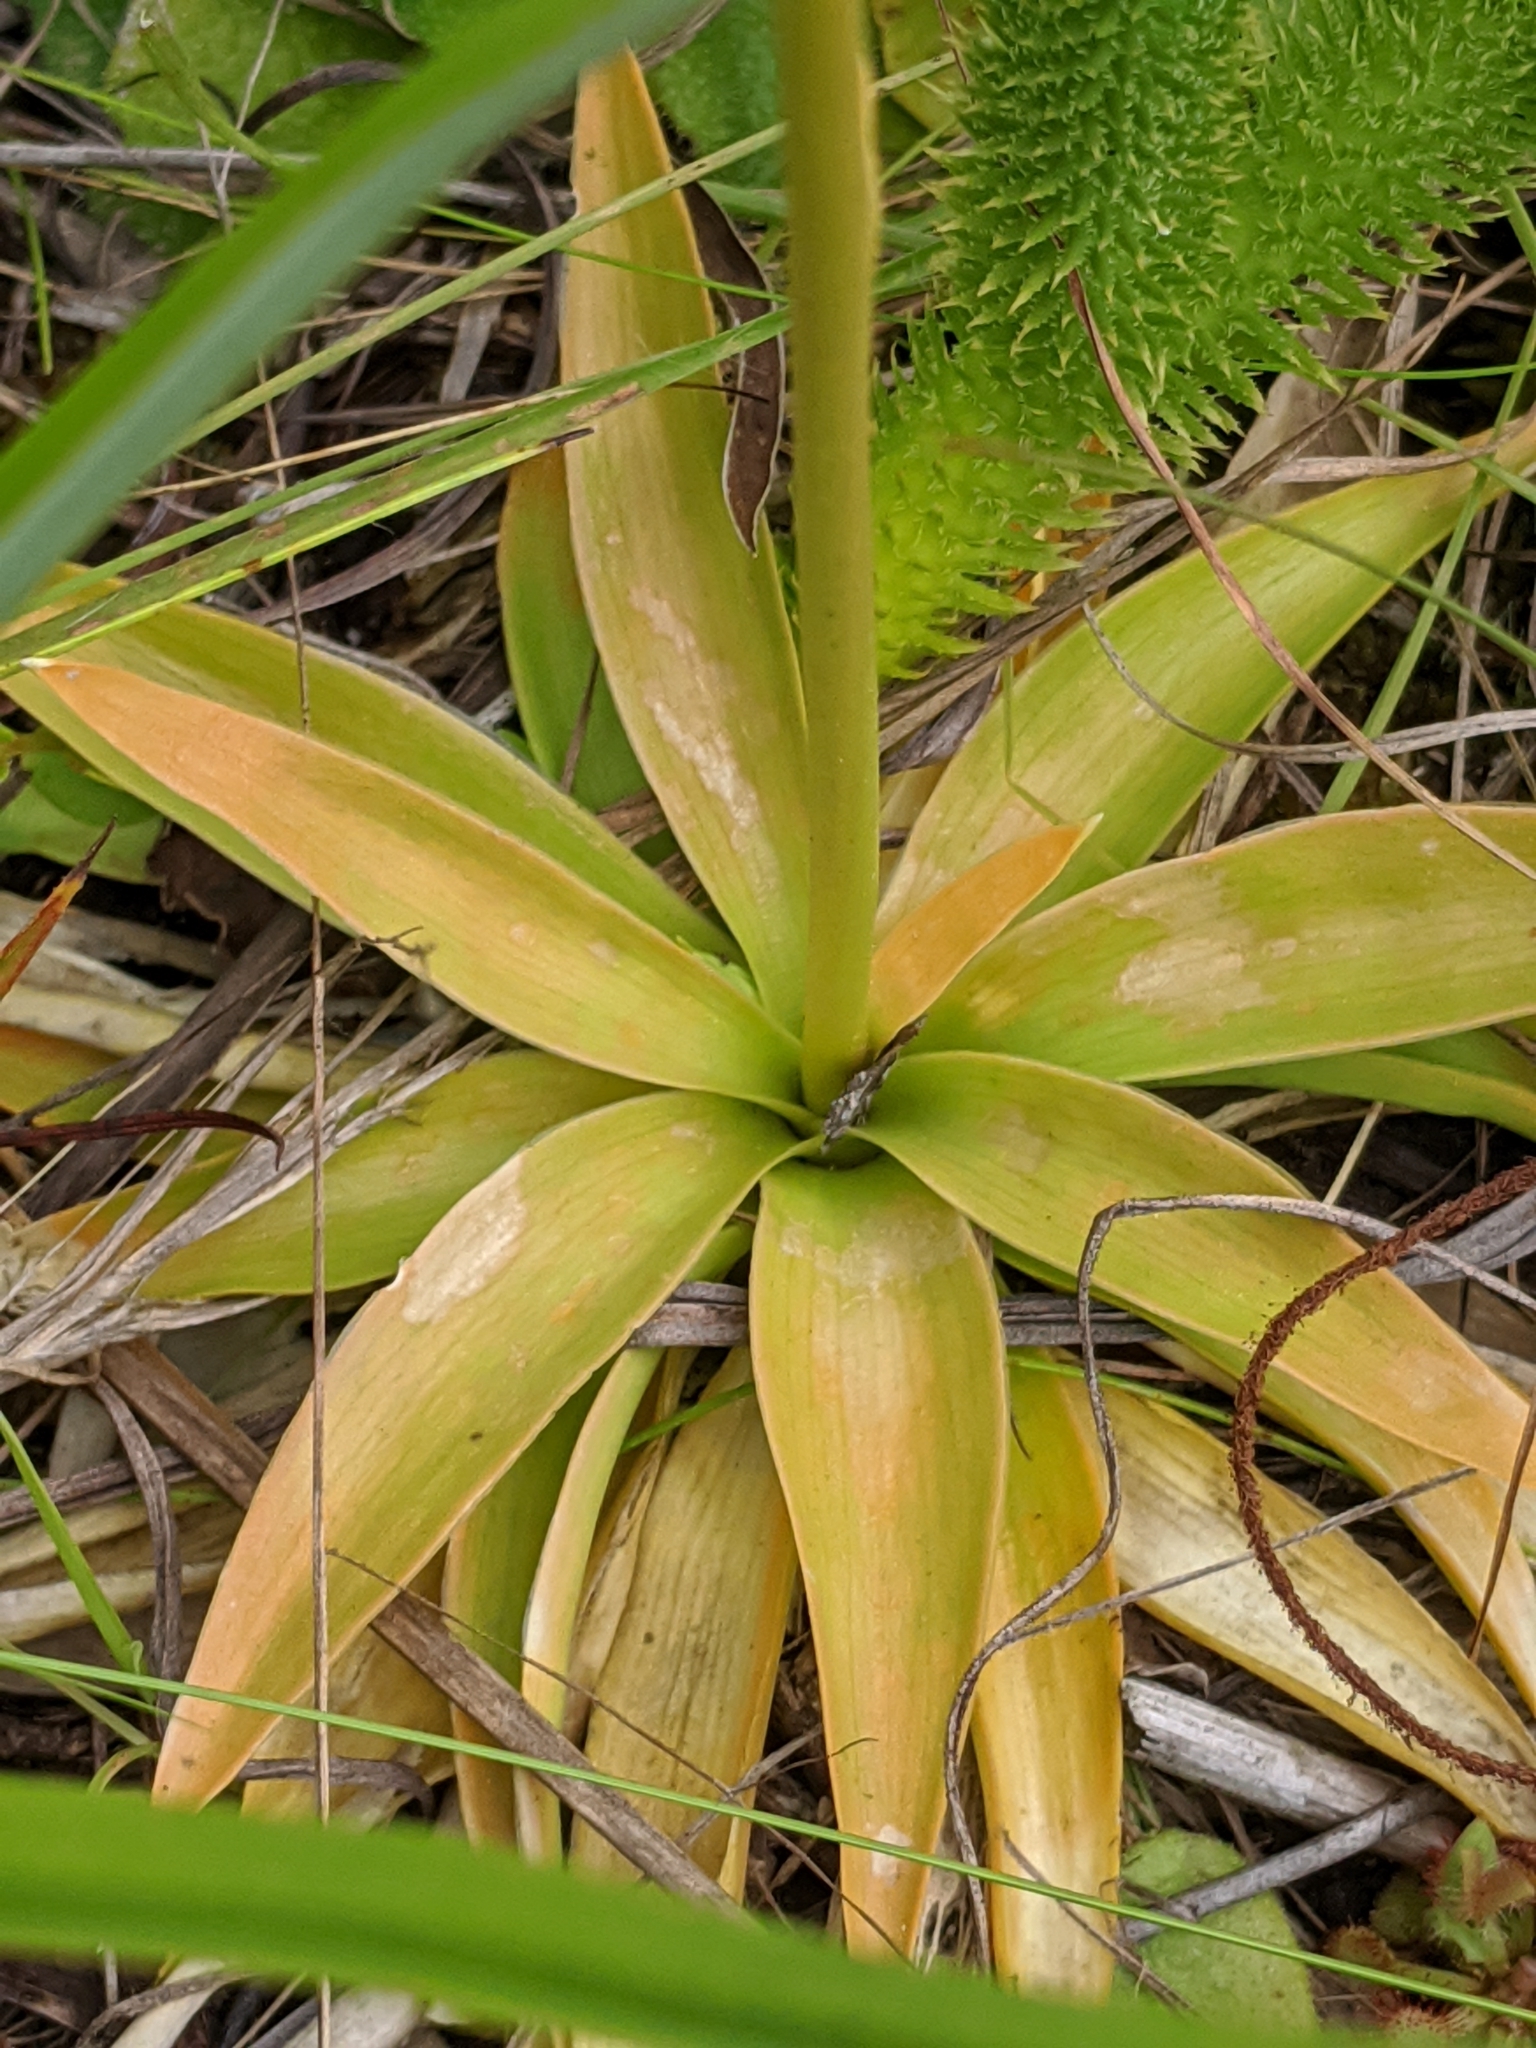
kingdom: Plantae
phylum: Tracheophyta
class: Liliopsida
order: Dioscoreales
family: Nartheciaceae
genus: Aletris
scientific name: Aletris lutea
